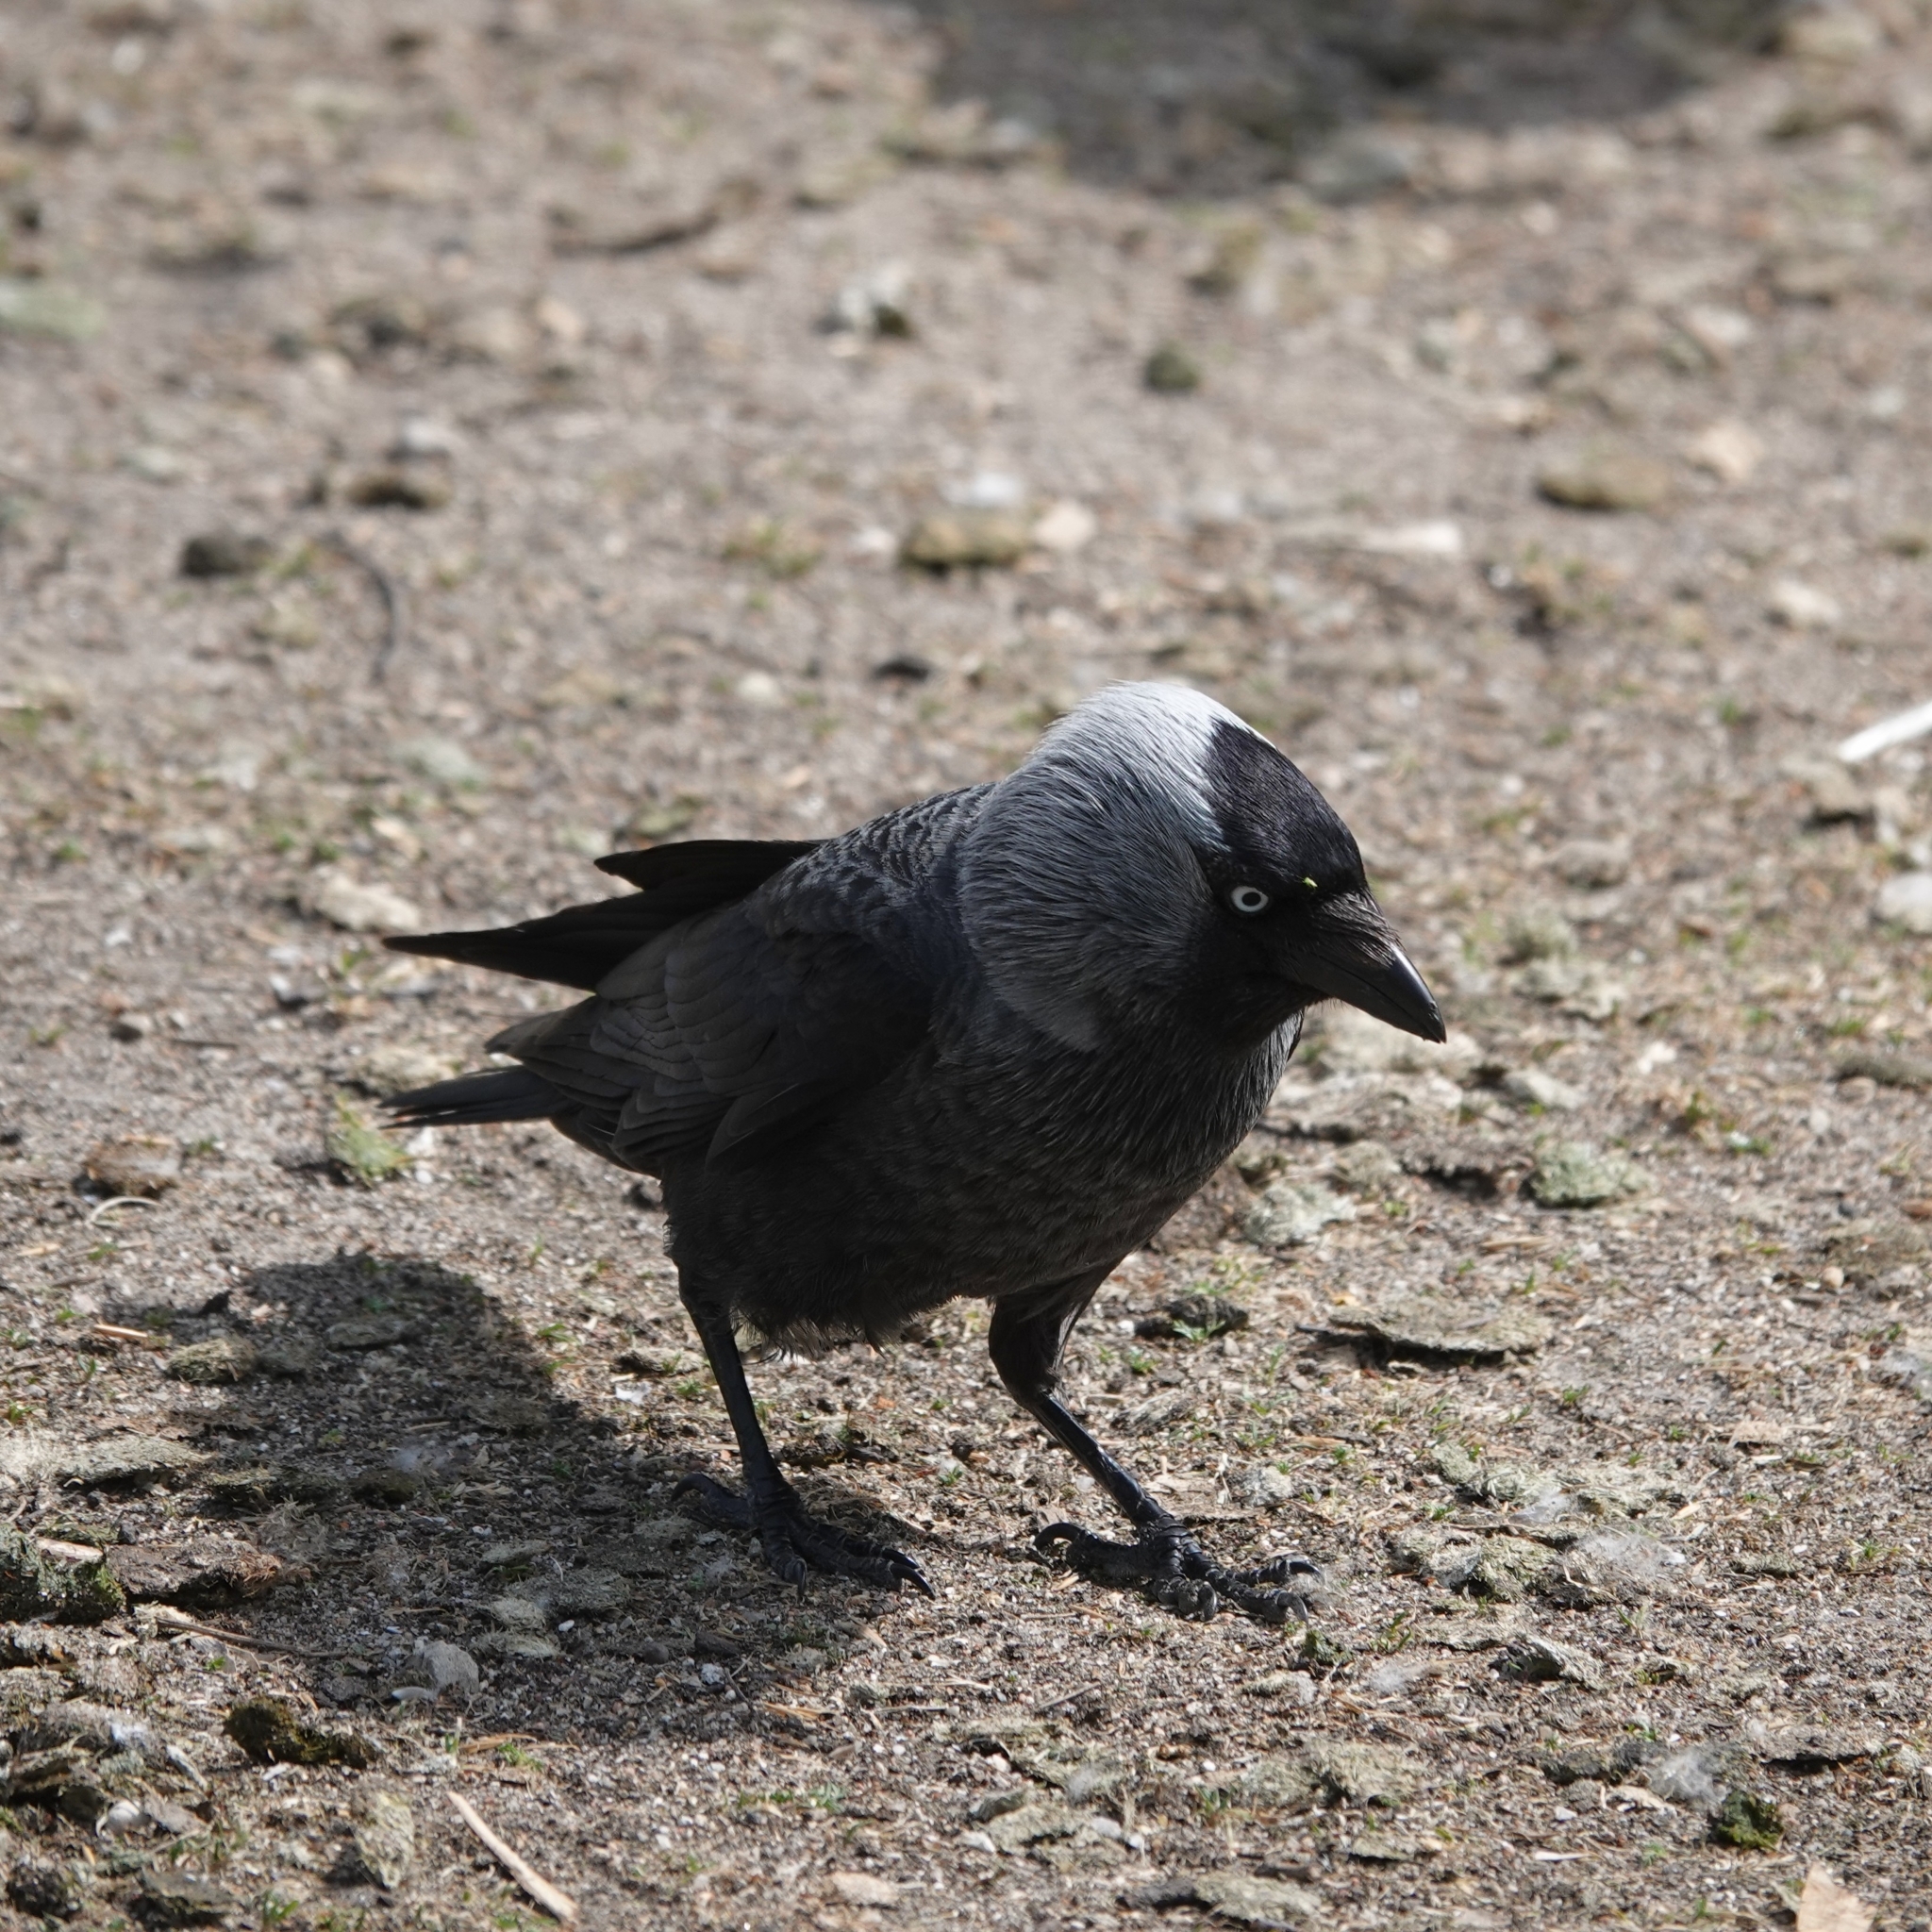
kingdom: Animalia
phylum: Chordata
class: Aves
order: Passeriformes
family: Corvidae
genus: Coloeus
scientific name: Coloeus monedula
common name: Western jackdaw
